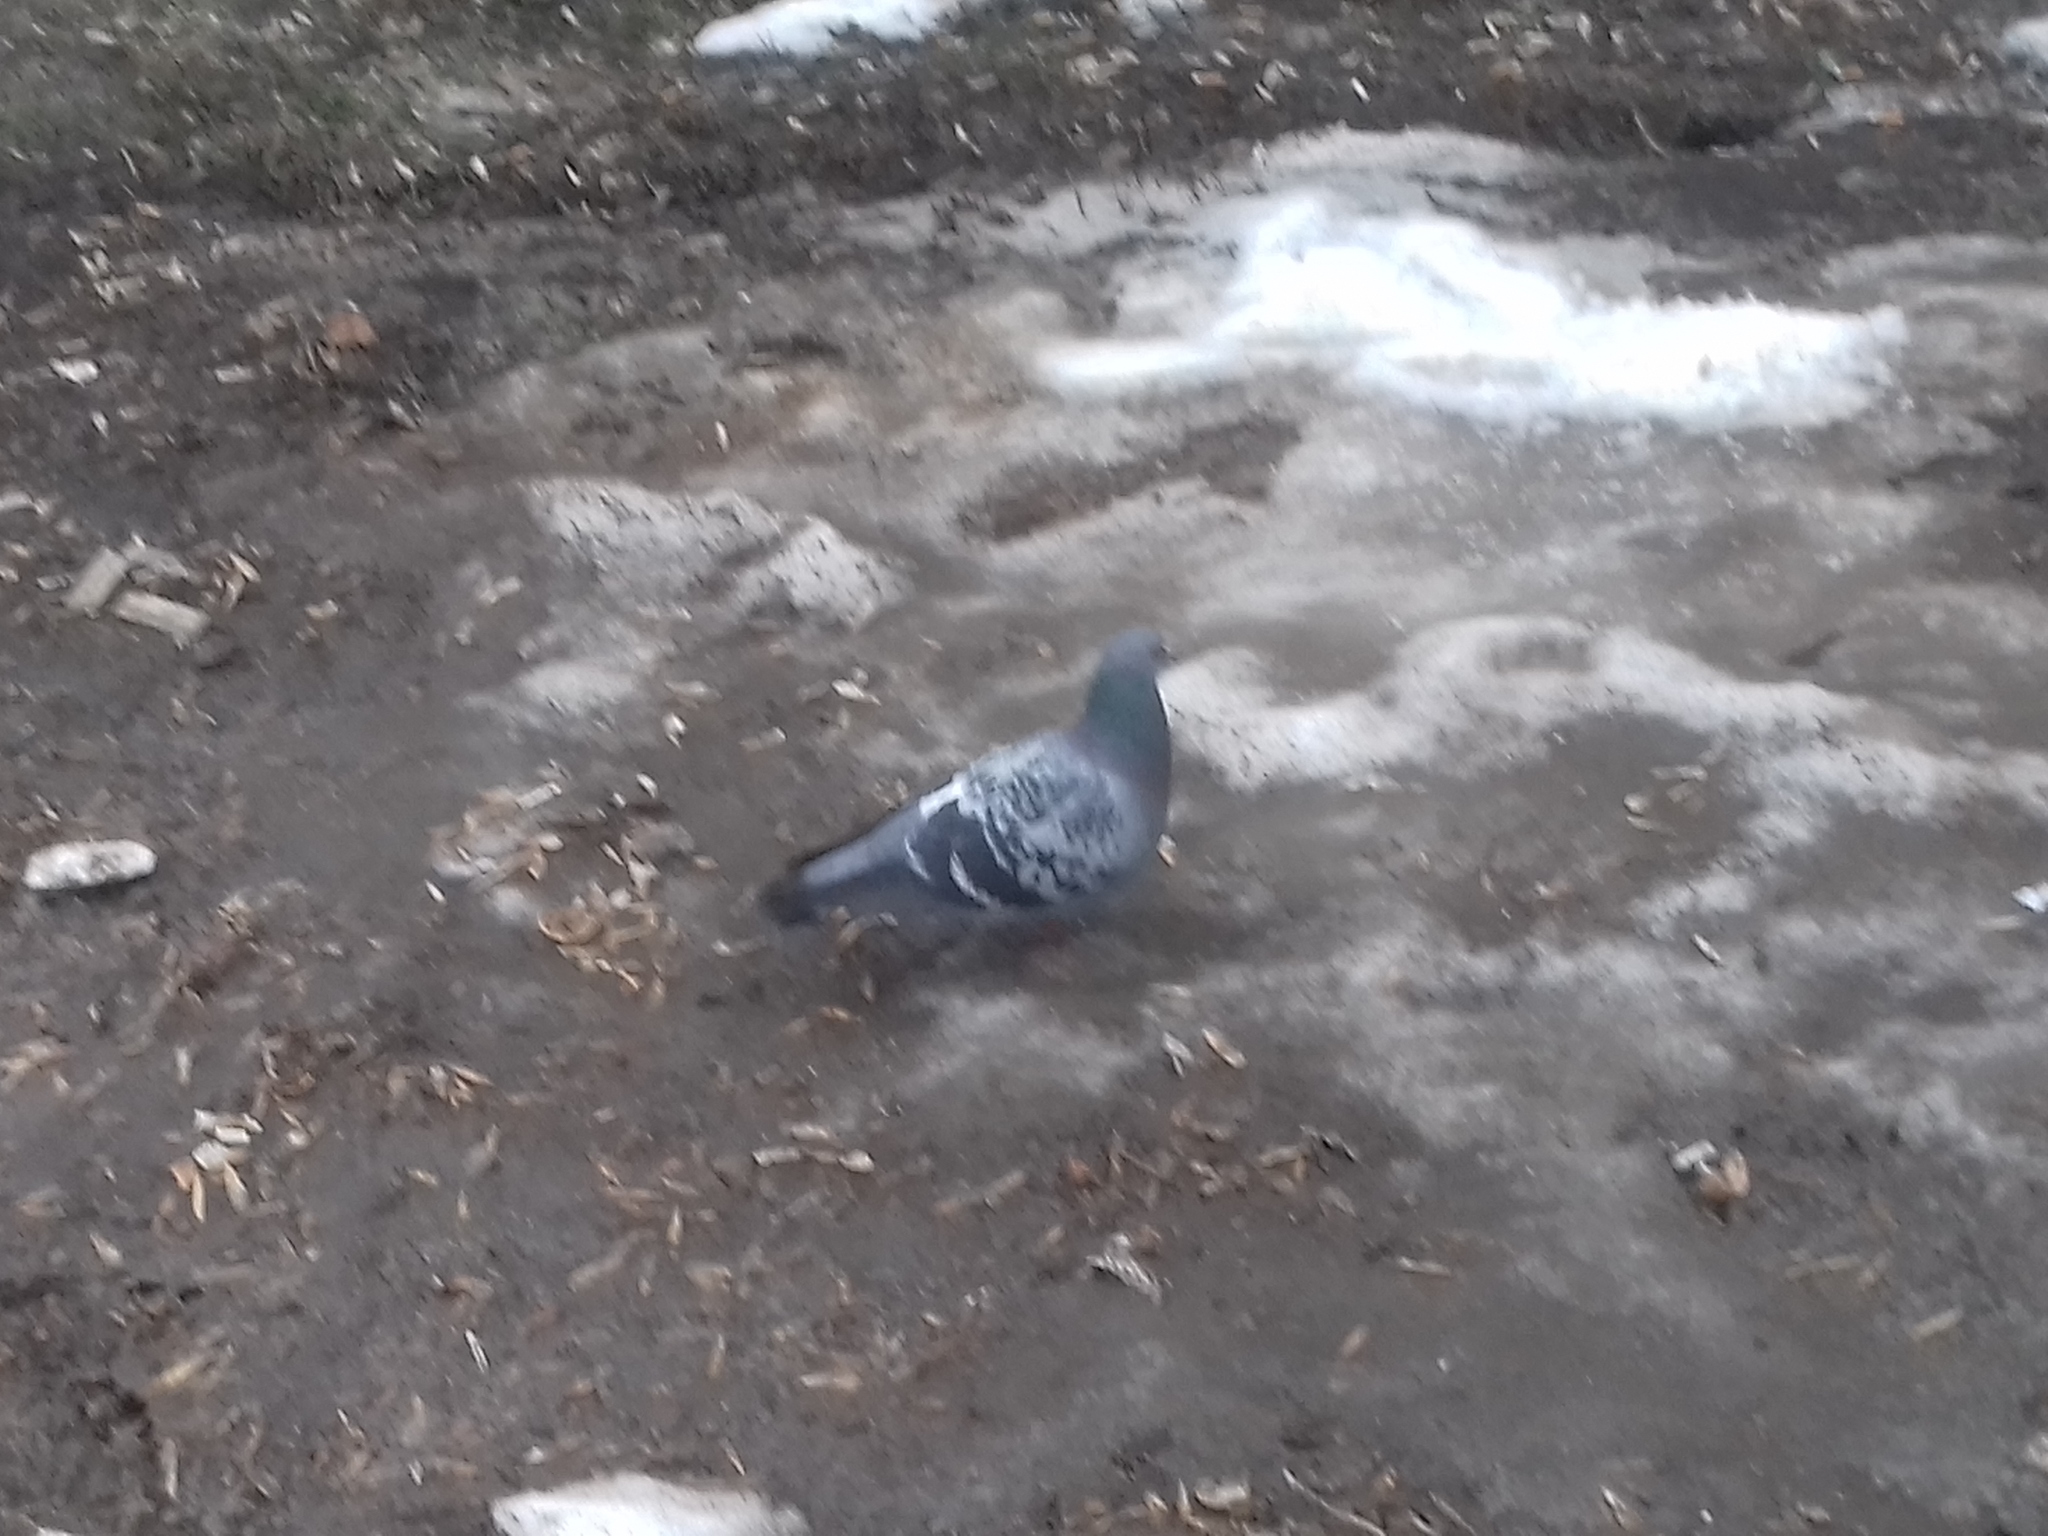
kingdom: Animalia
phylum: Chordata
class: Aves
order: Columbiformes
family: Columbidae
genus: Columba
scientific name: Columba livia
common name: Rock pigeon
